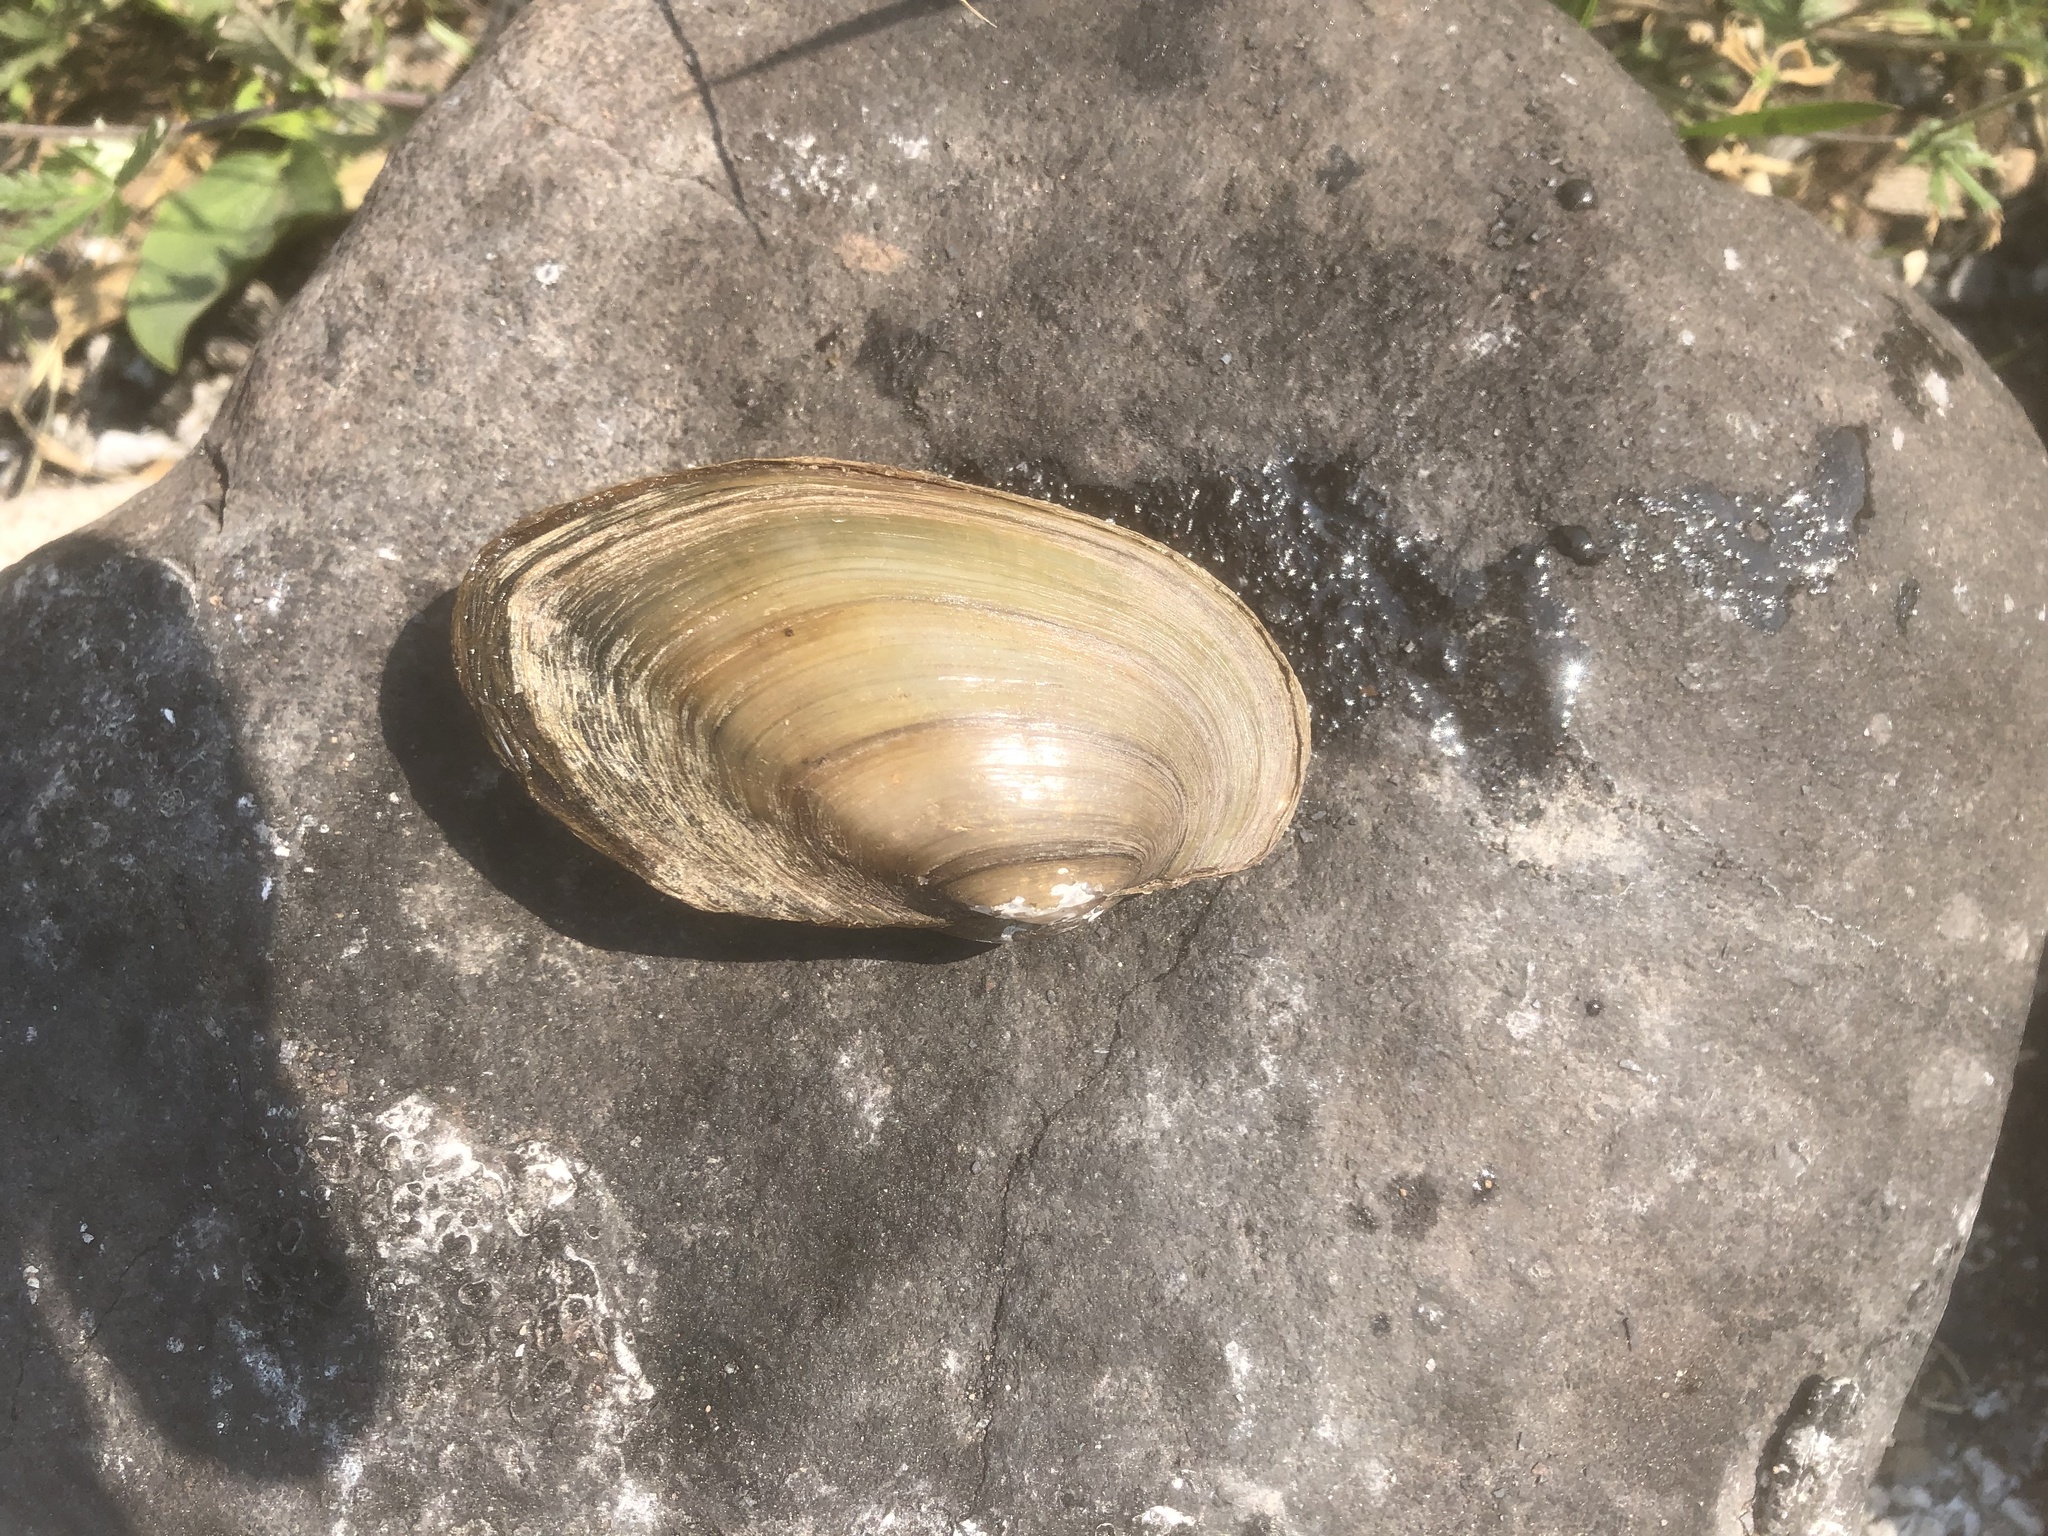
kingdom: Animalia
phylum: Mollusca
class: Bivalvia
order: Unionida
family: Unionidae
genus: Pyganodon
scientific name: Pyganodon grandis
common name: Giant floater
